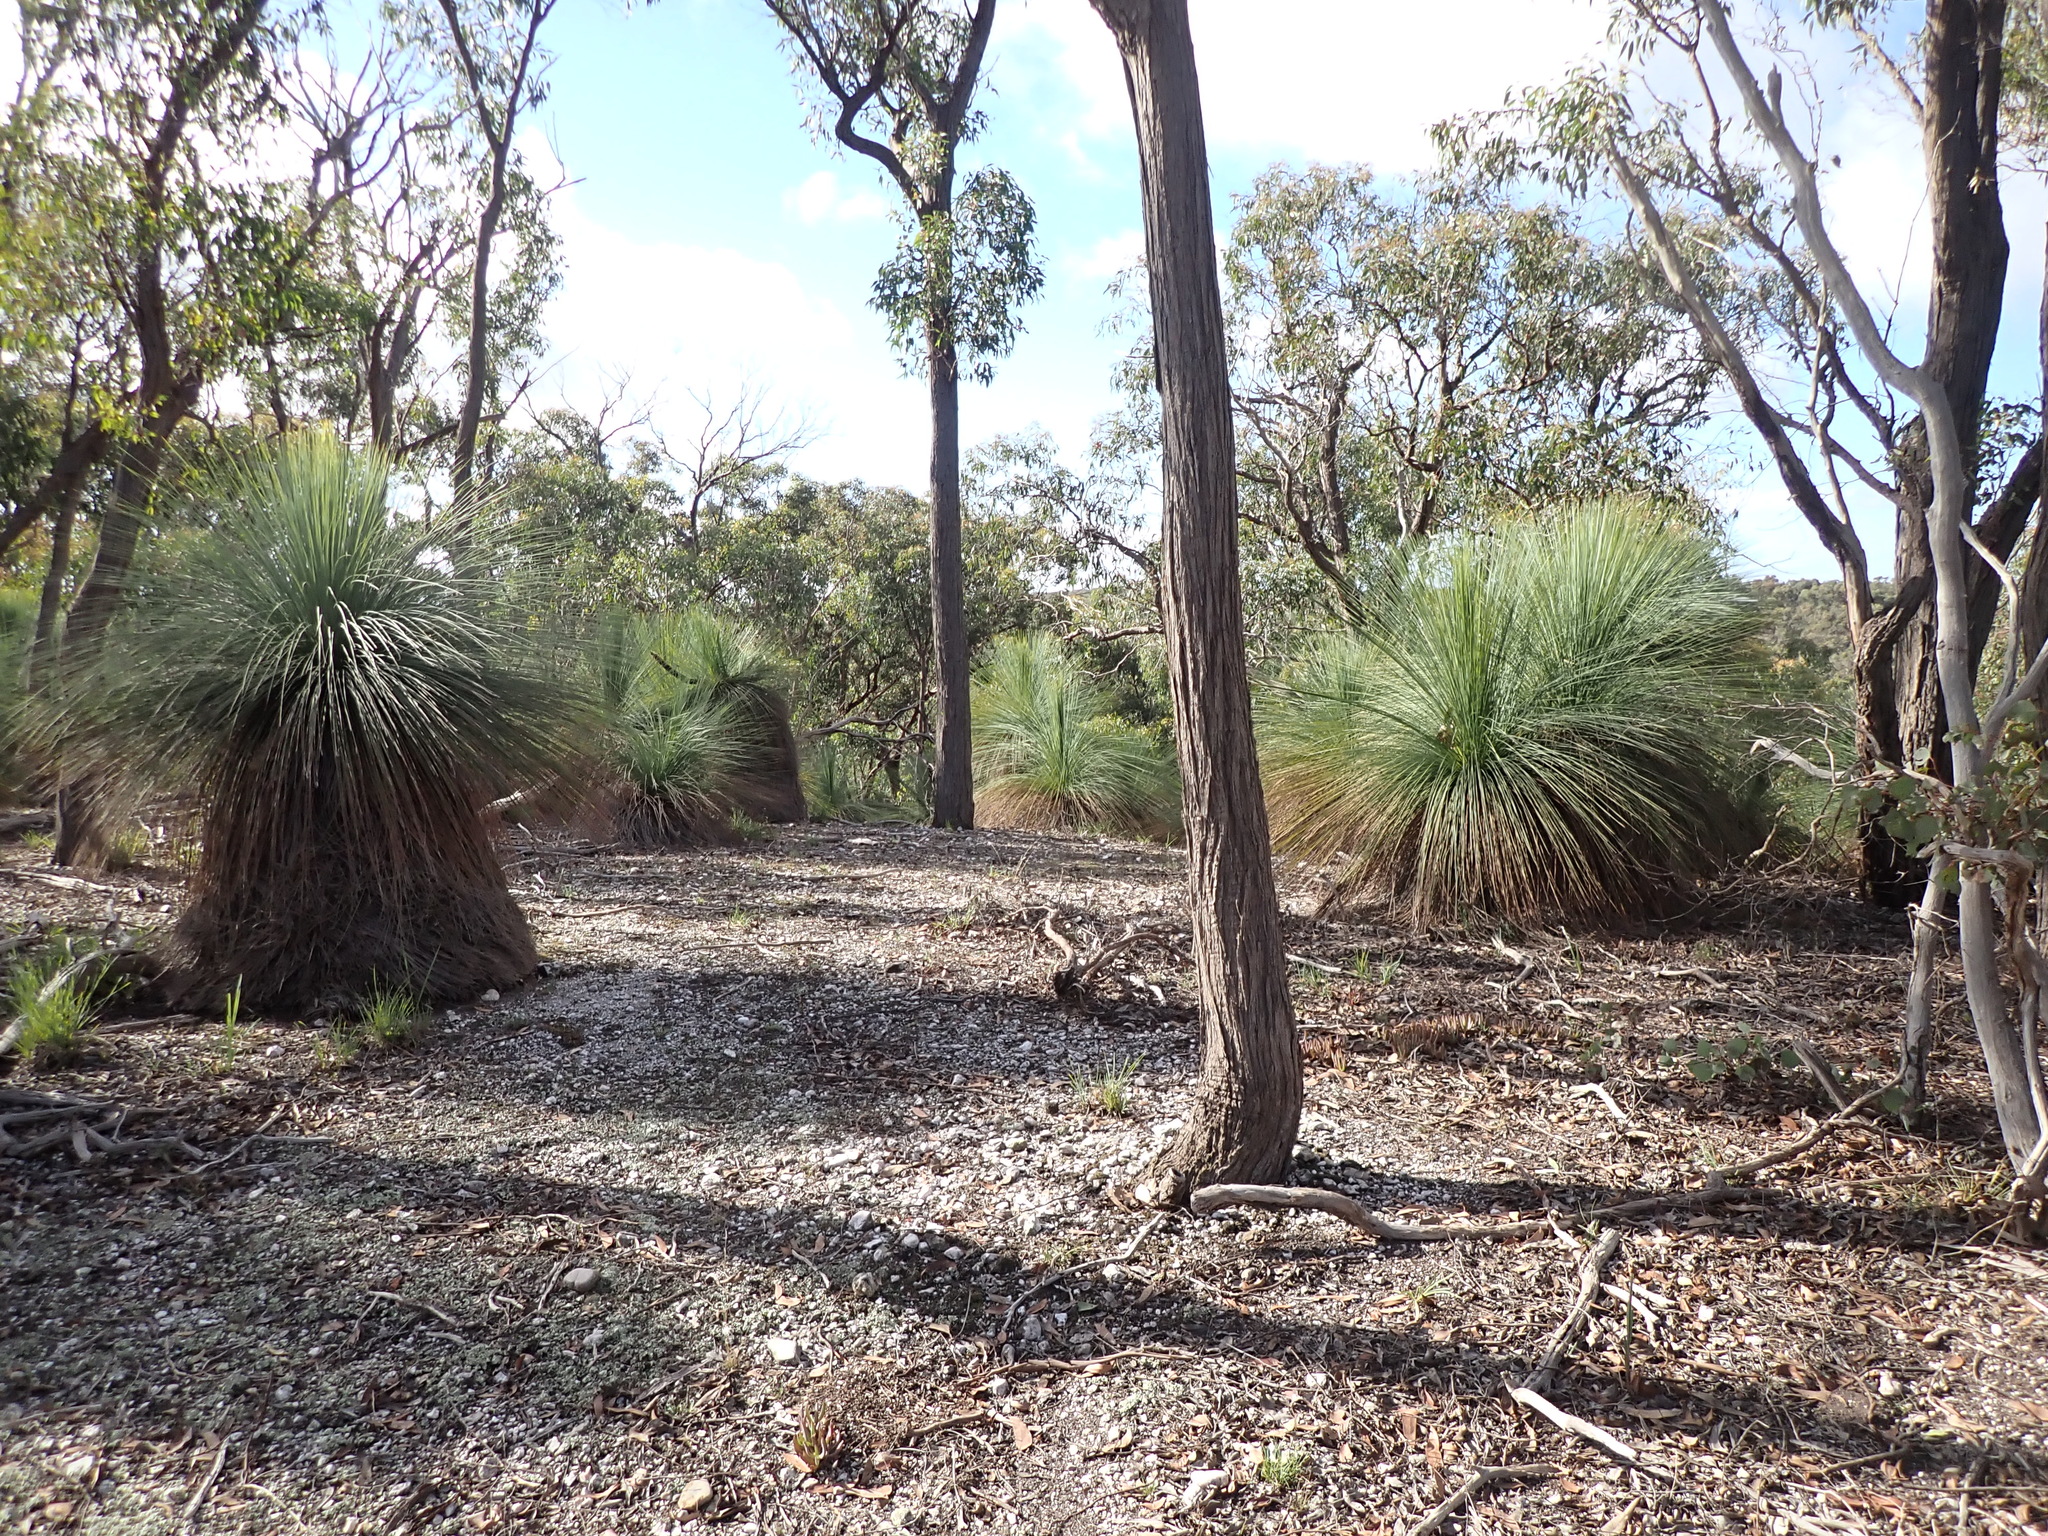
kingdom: Plantae
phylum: Tracheophyta
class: Liliopsida
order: Asparagales
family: Asphodelaceae
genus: Xanthorrhoea
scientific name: Xanthorrhoea australis
